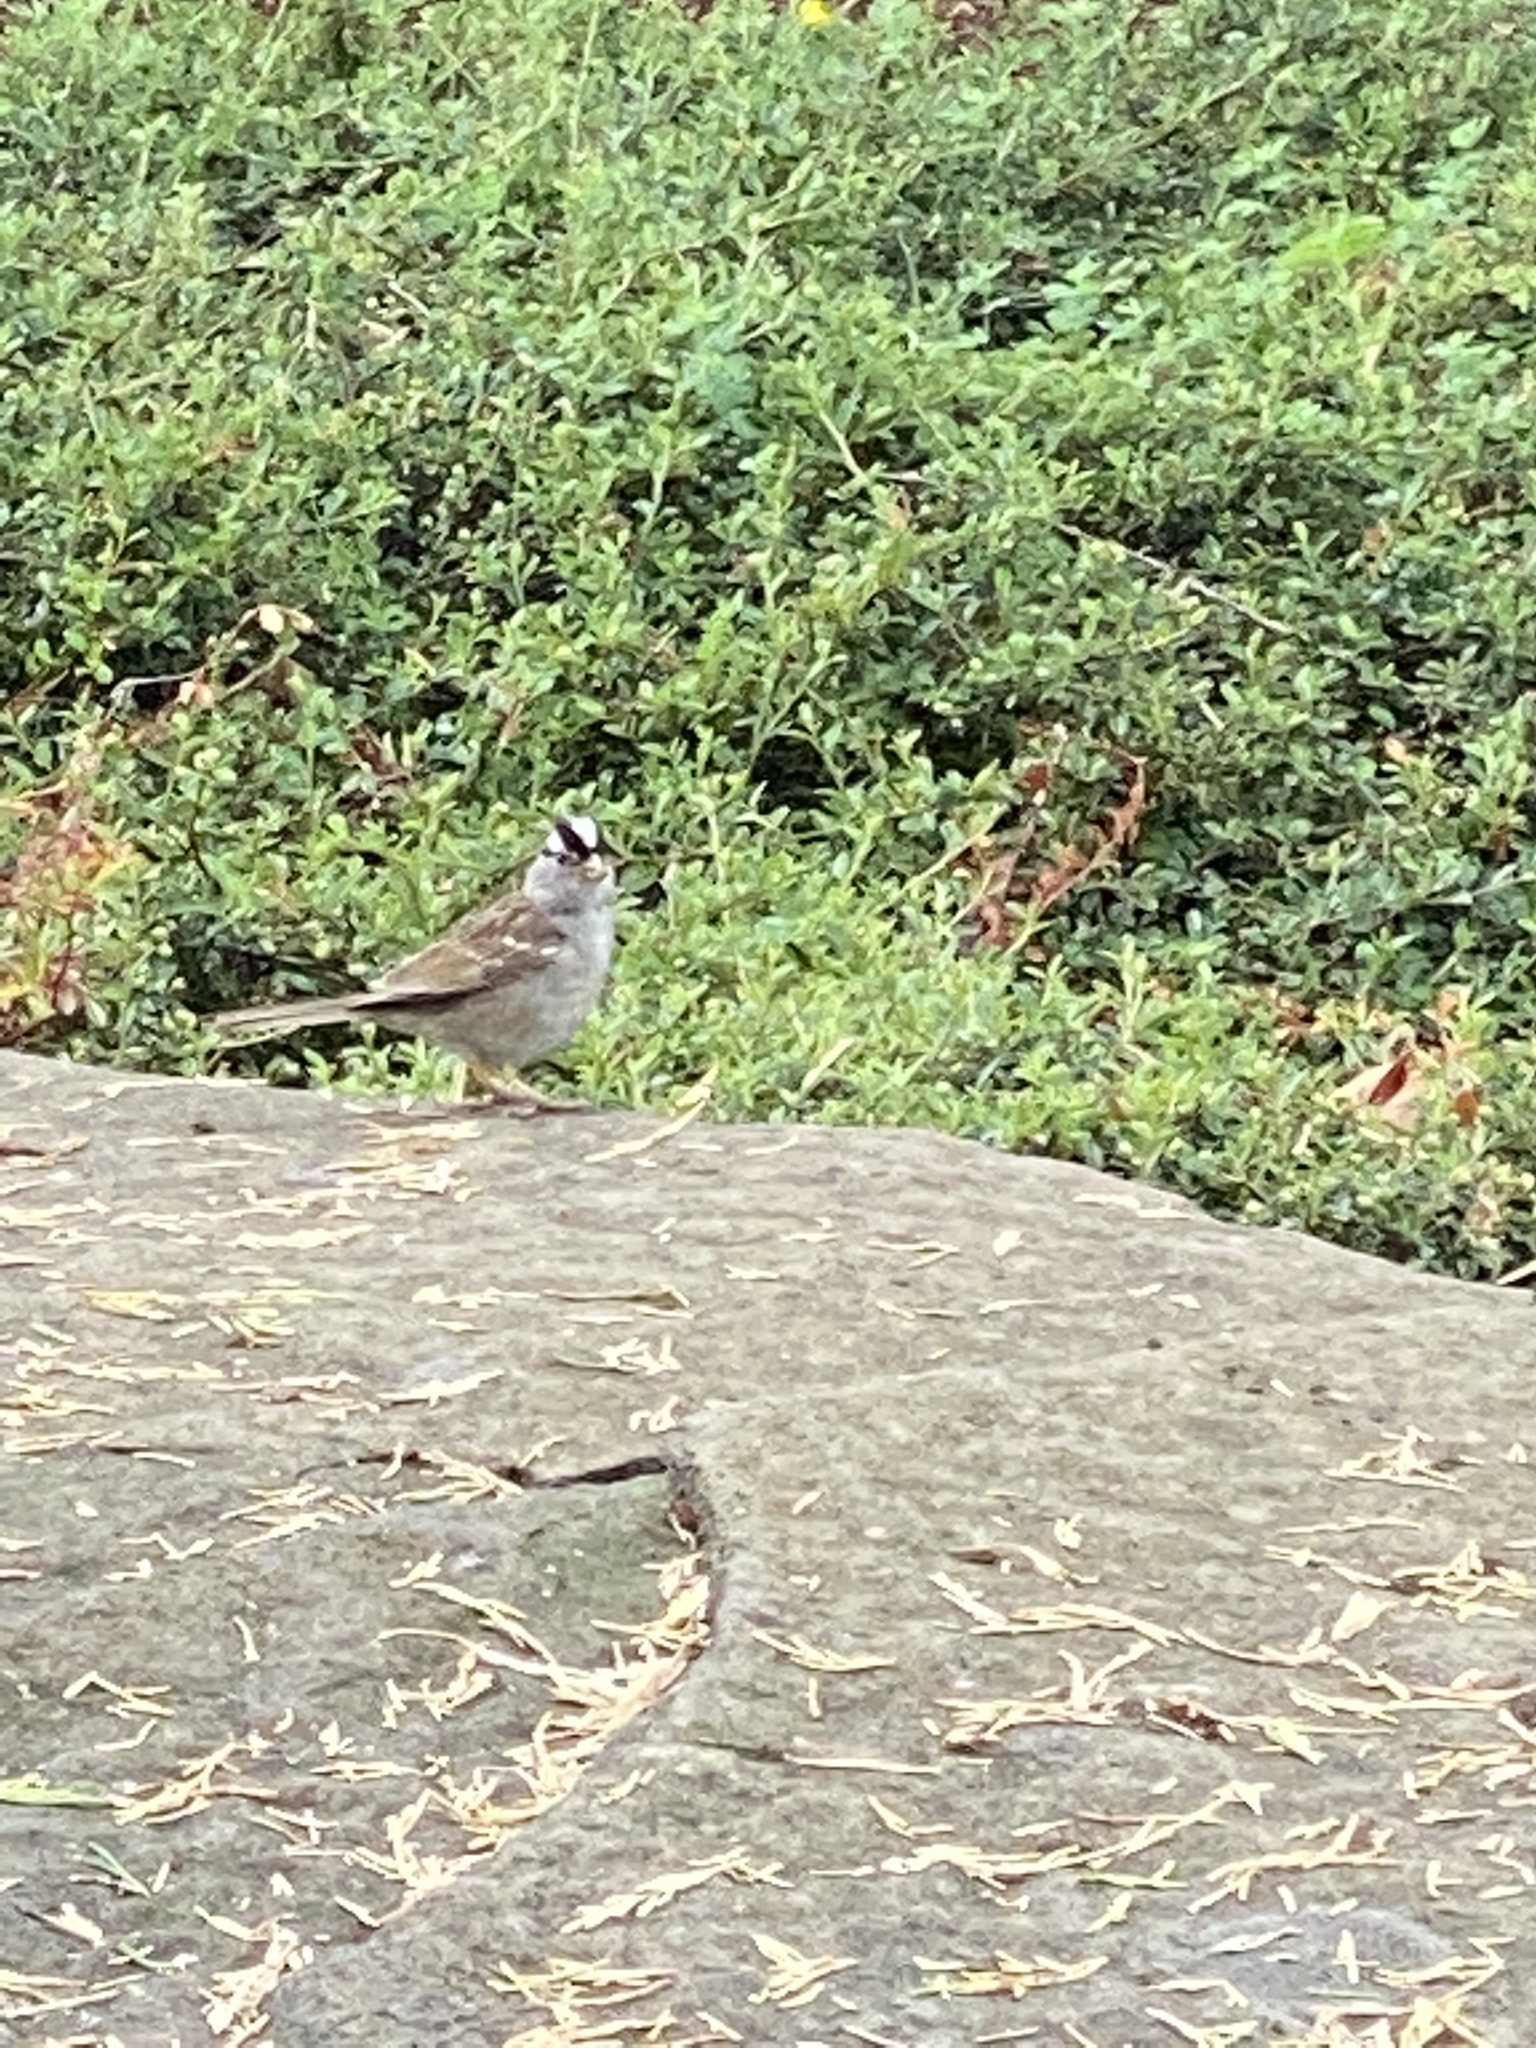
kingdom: Animalia
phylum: Chordata
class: Aves
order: Passeriformes
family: Passerellidae
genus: Zonotrichia
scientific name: Zonotrichia leucophrys
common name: White-crowned sparrow
